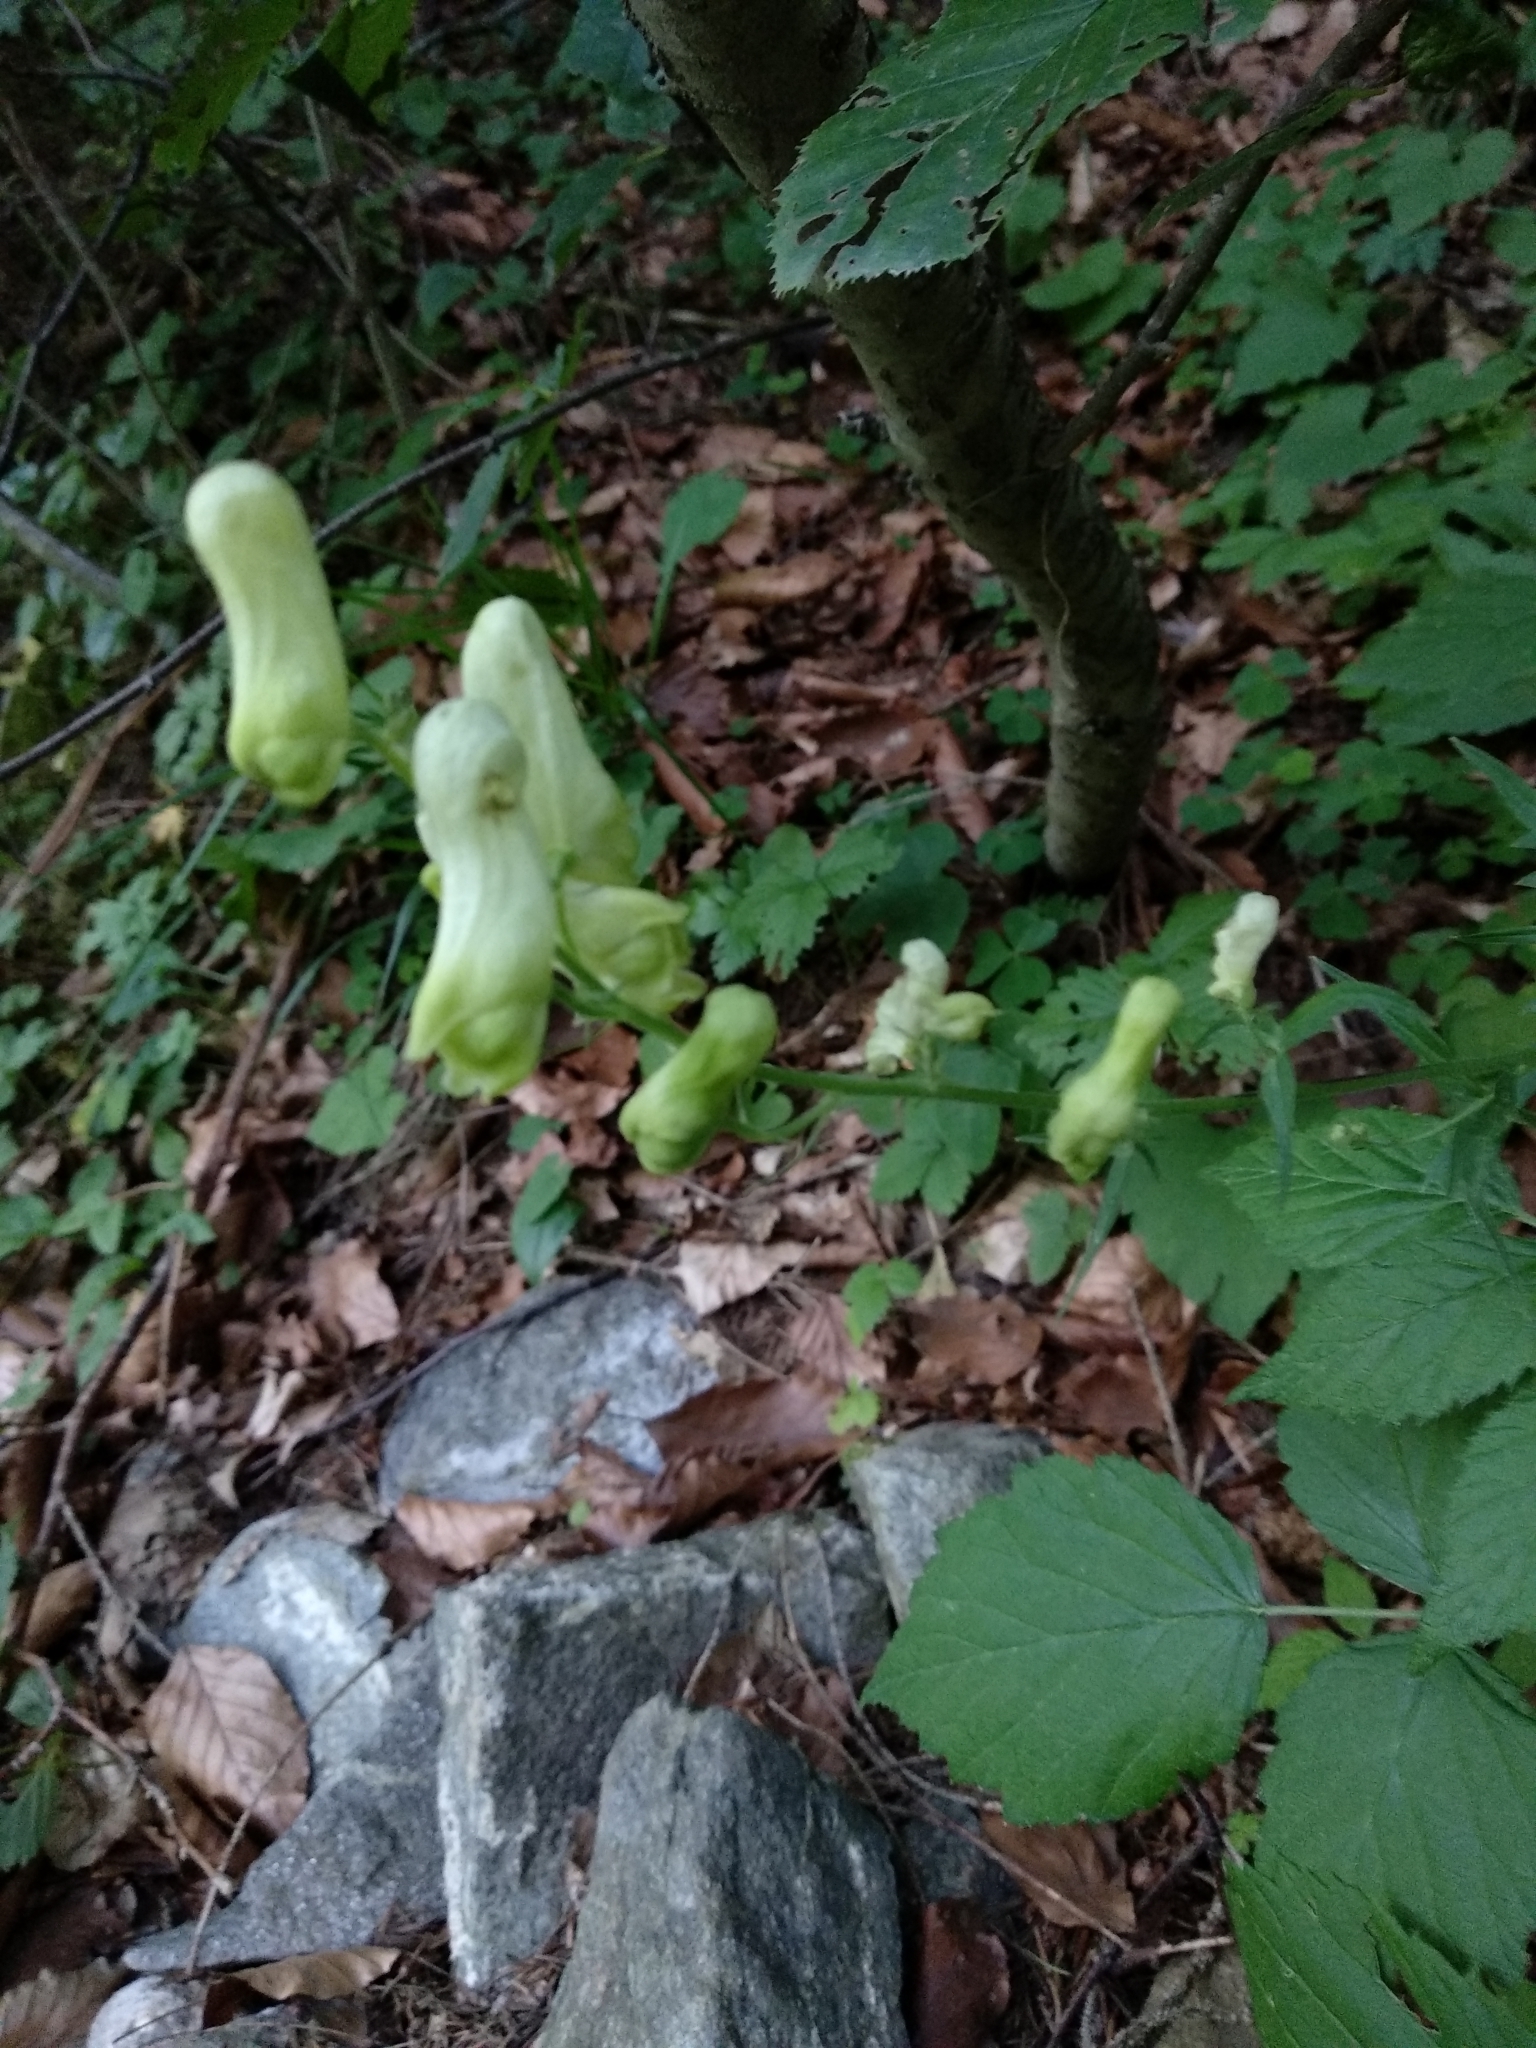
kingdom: Plantae
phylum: Tracheophyta
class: Magnoliopsida
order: Ranunculales
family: Ranunculaceae
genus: Aconitum
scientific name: Aconitum lycoctonum
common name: Wolf's-bane
